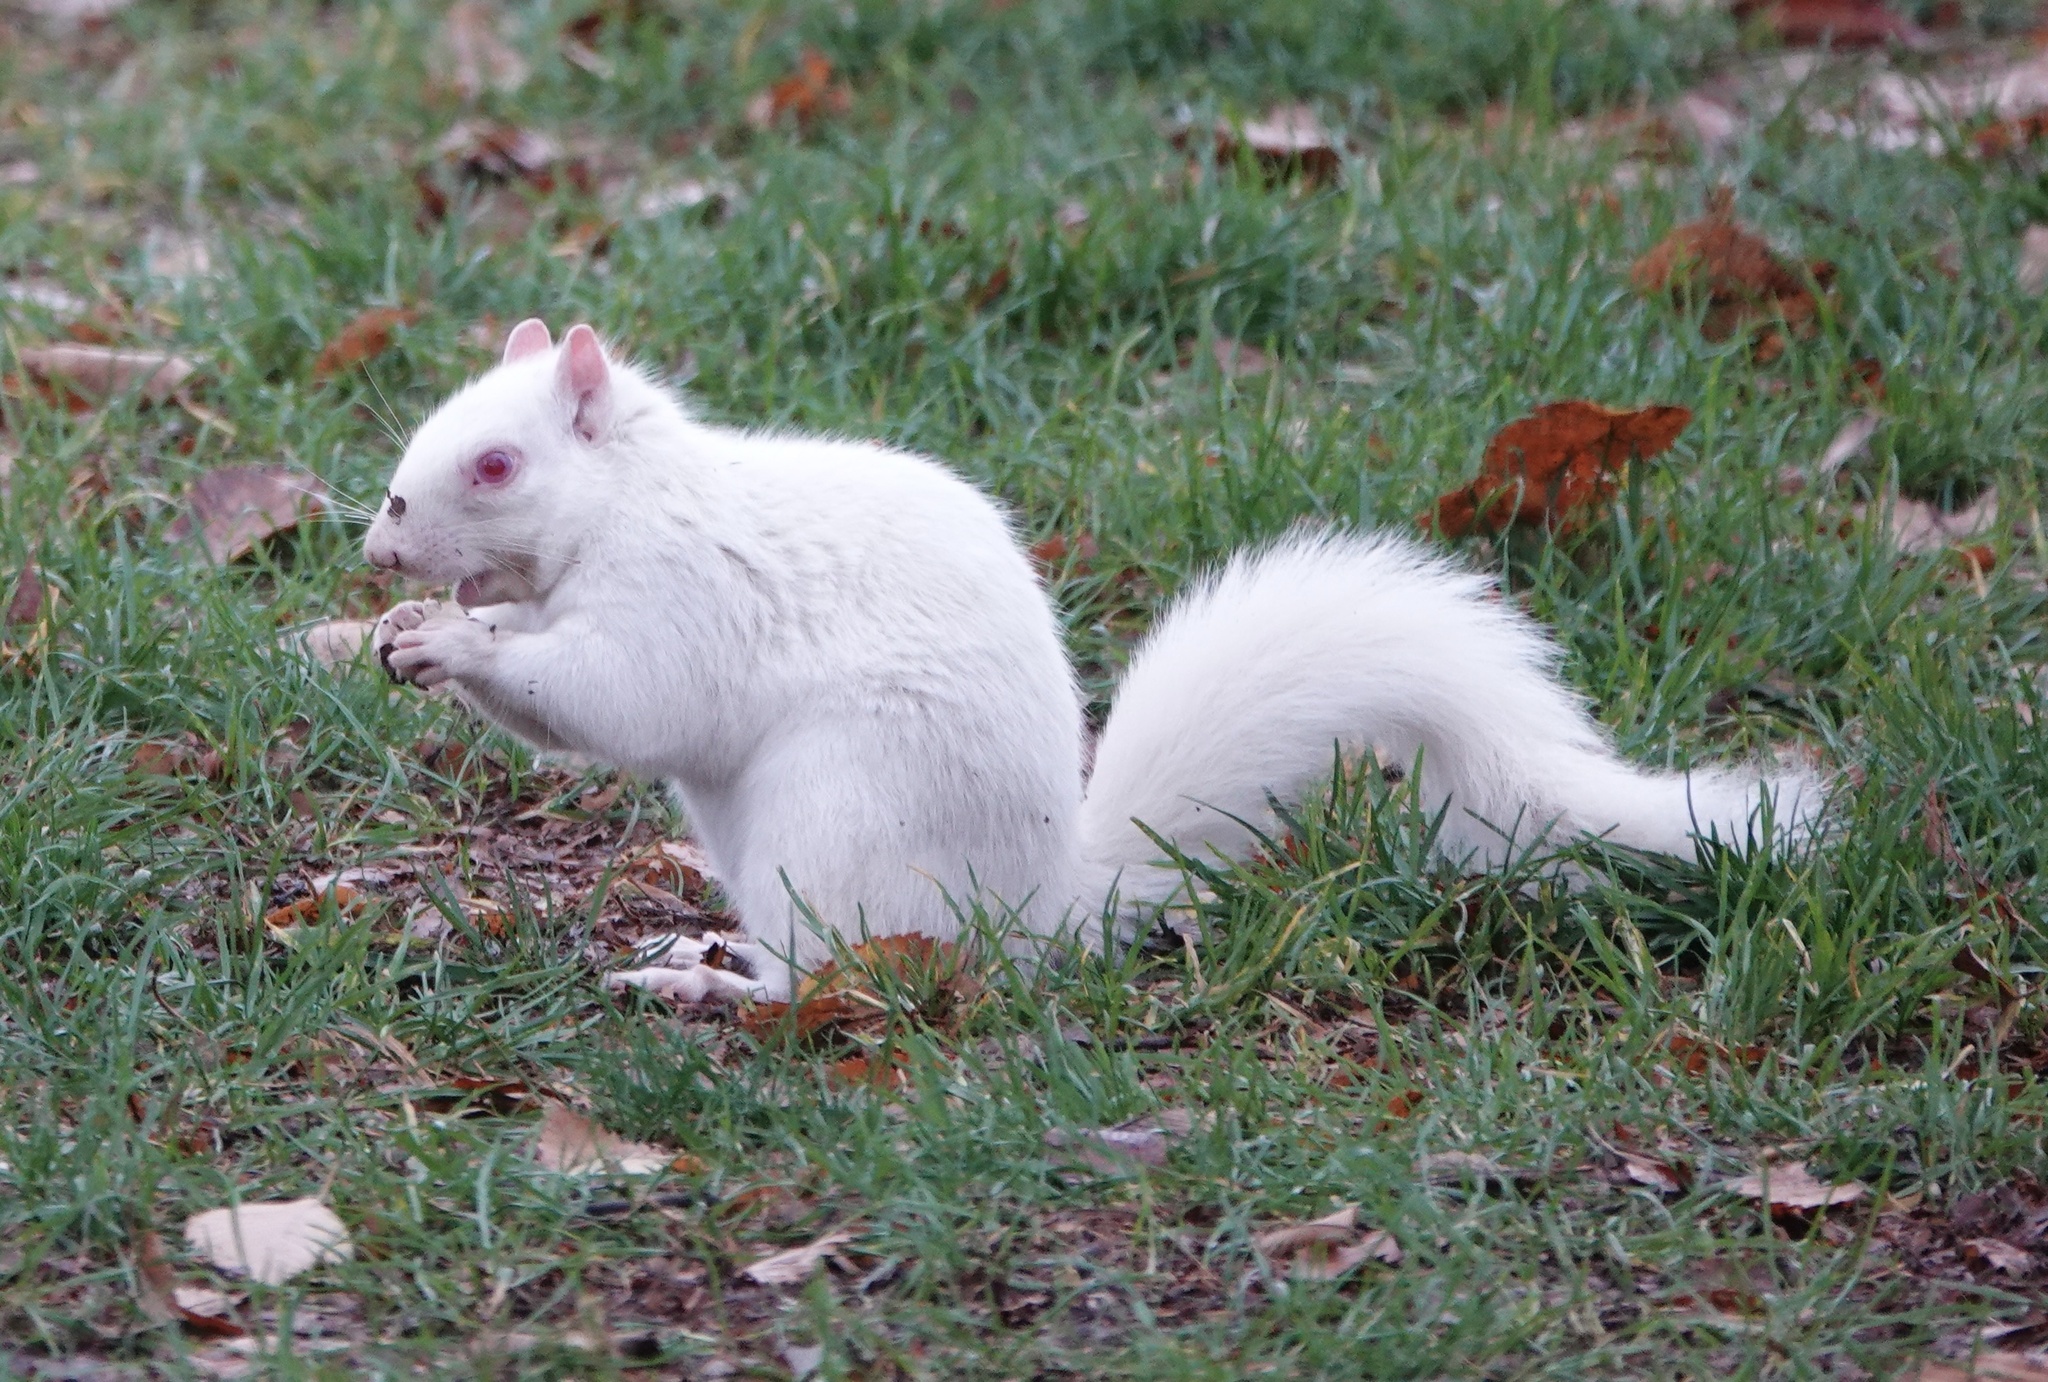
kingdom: Animalia
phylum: Chordata
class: Mammalia
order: Rodentia
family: Sciuridae
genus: Sciurus
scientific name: Sciurus carolinensis
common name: Eastern gray squirrel
